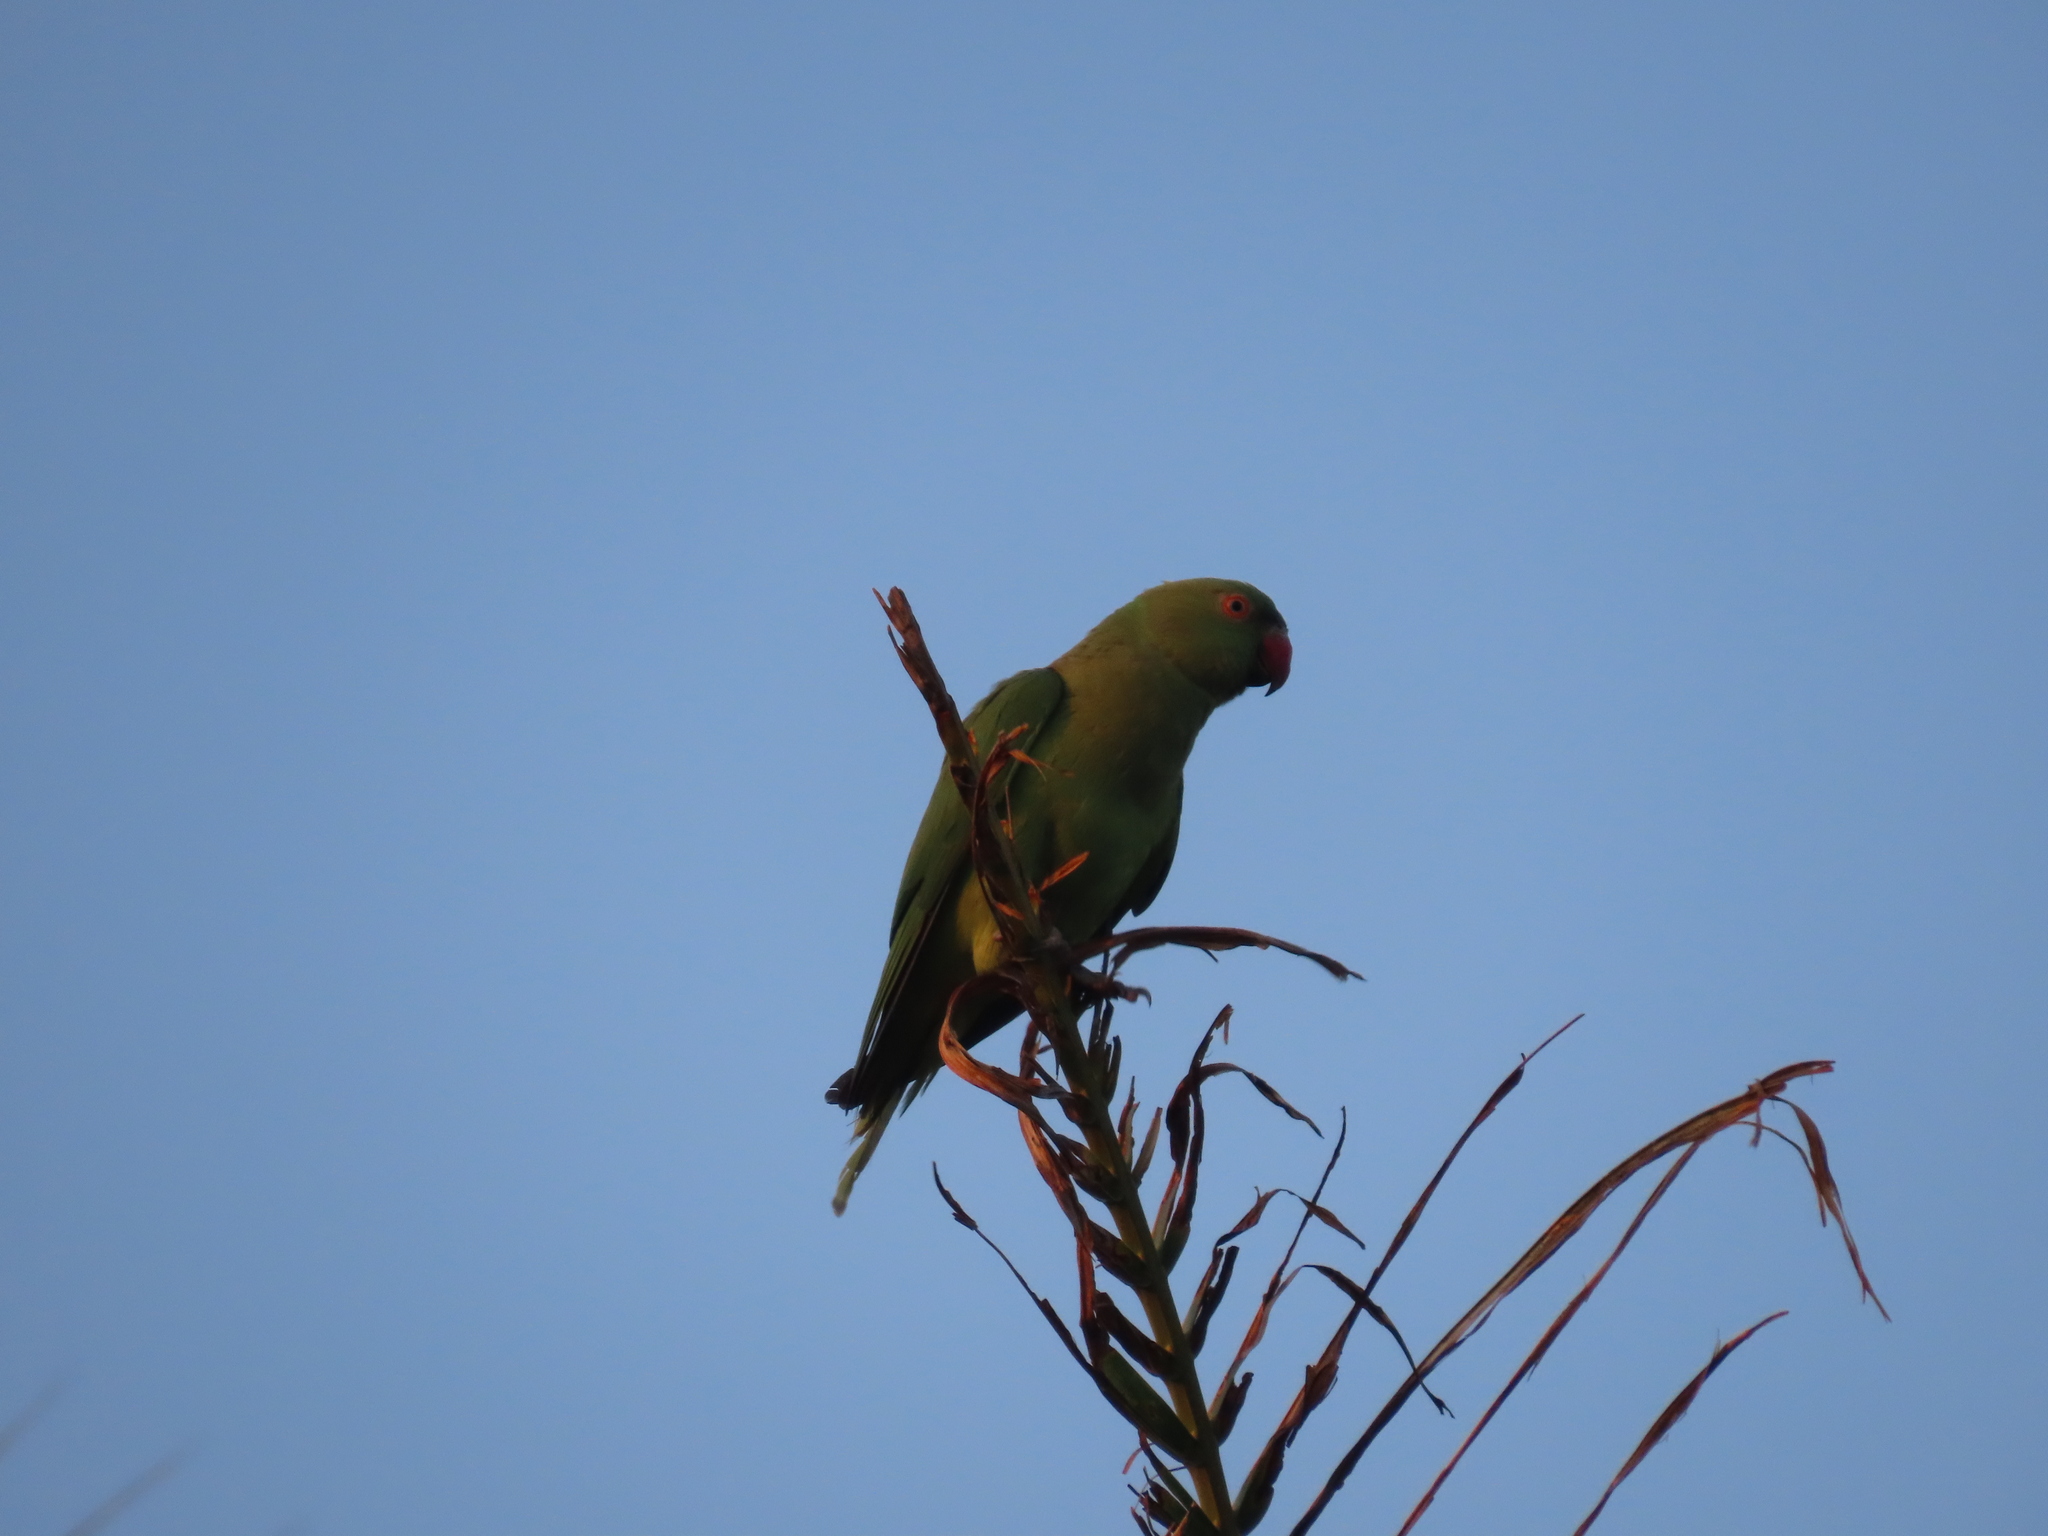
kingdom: Animalia
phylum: Chordata
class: Aves
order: Psittaciformes
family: Psittacidae
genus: Psittacula
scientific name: Psittacula krameri
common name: Rose-ringed parakeet
